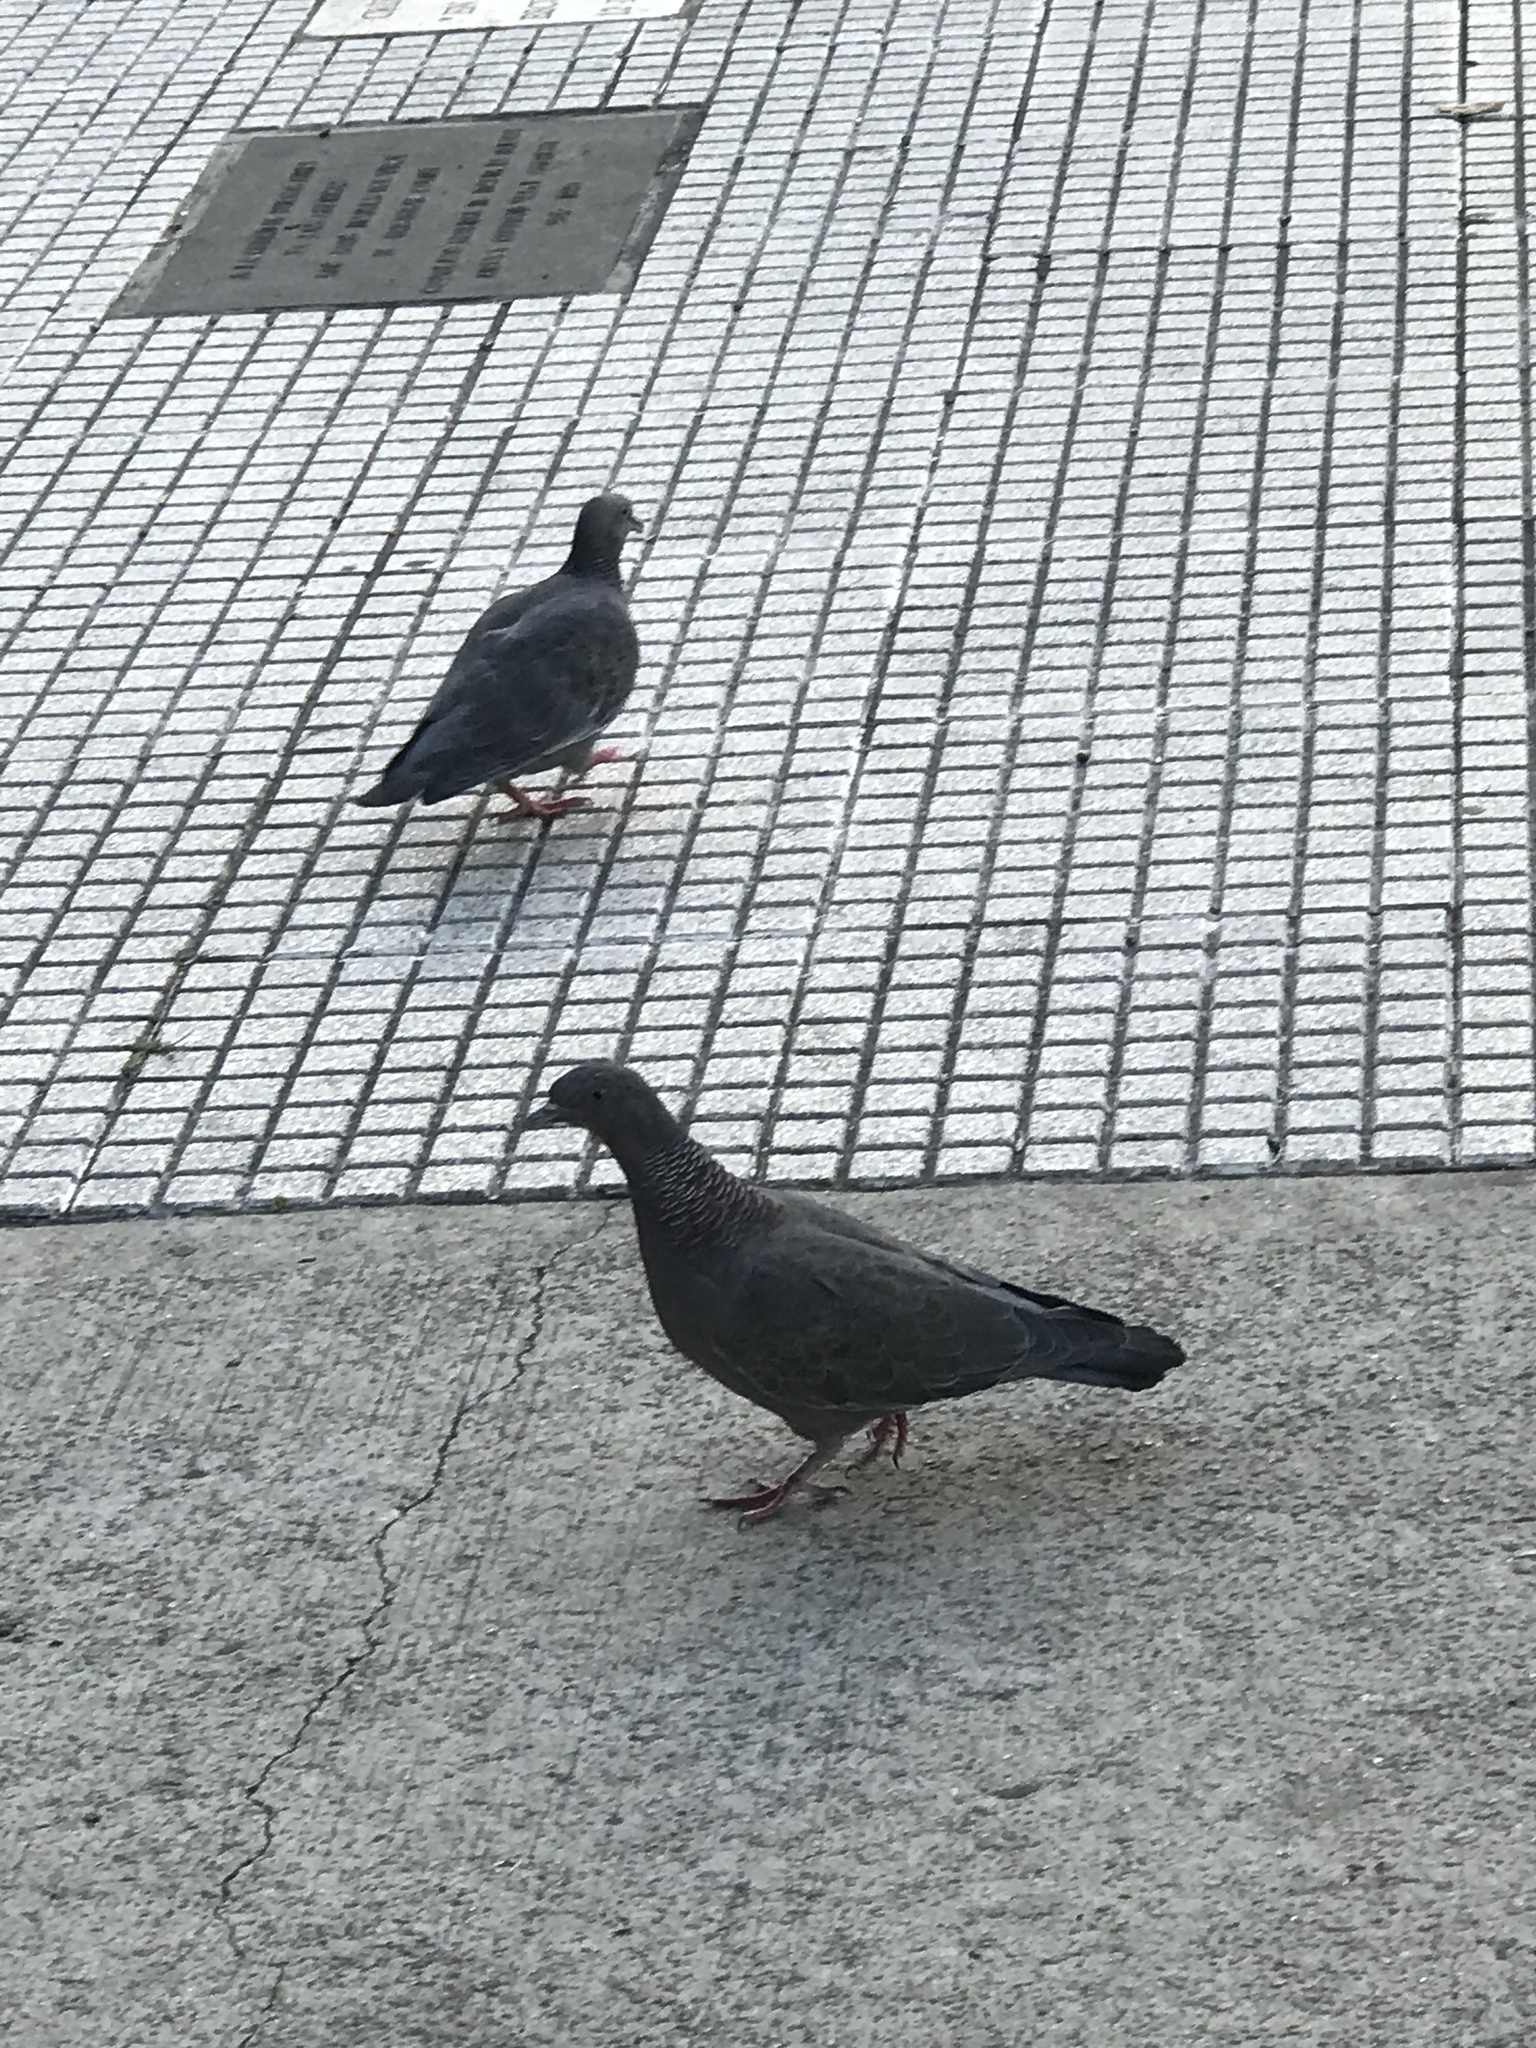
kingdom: Animalia
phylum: Chordata
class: Aves
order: Columbiformes
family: Columbidae
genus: Patagioenas
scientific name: Patagioenas picazuro
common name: Picazuro pigeon
